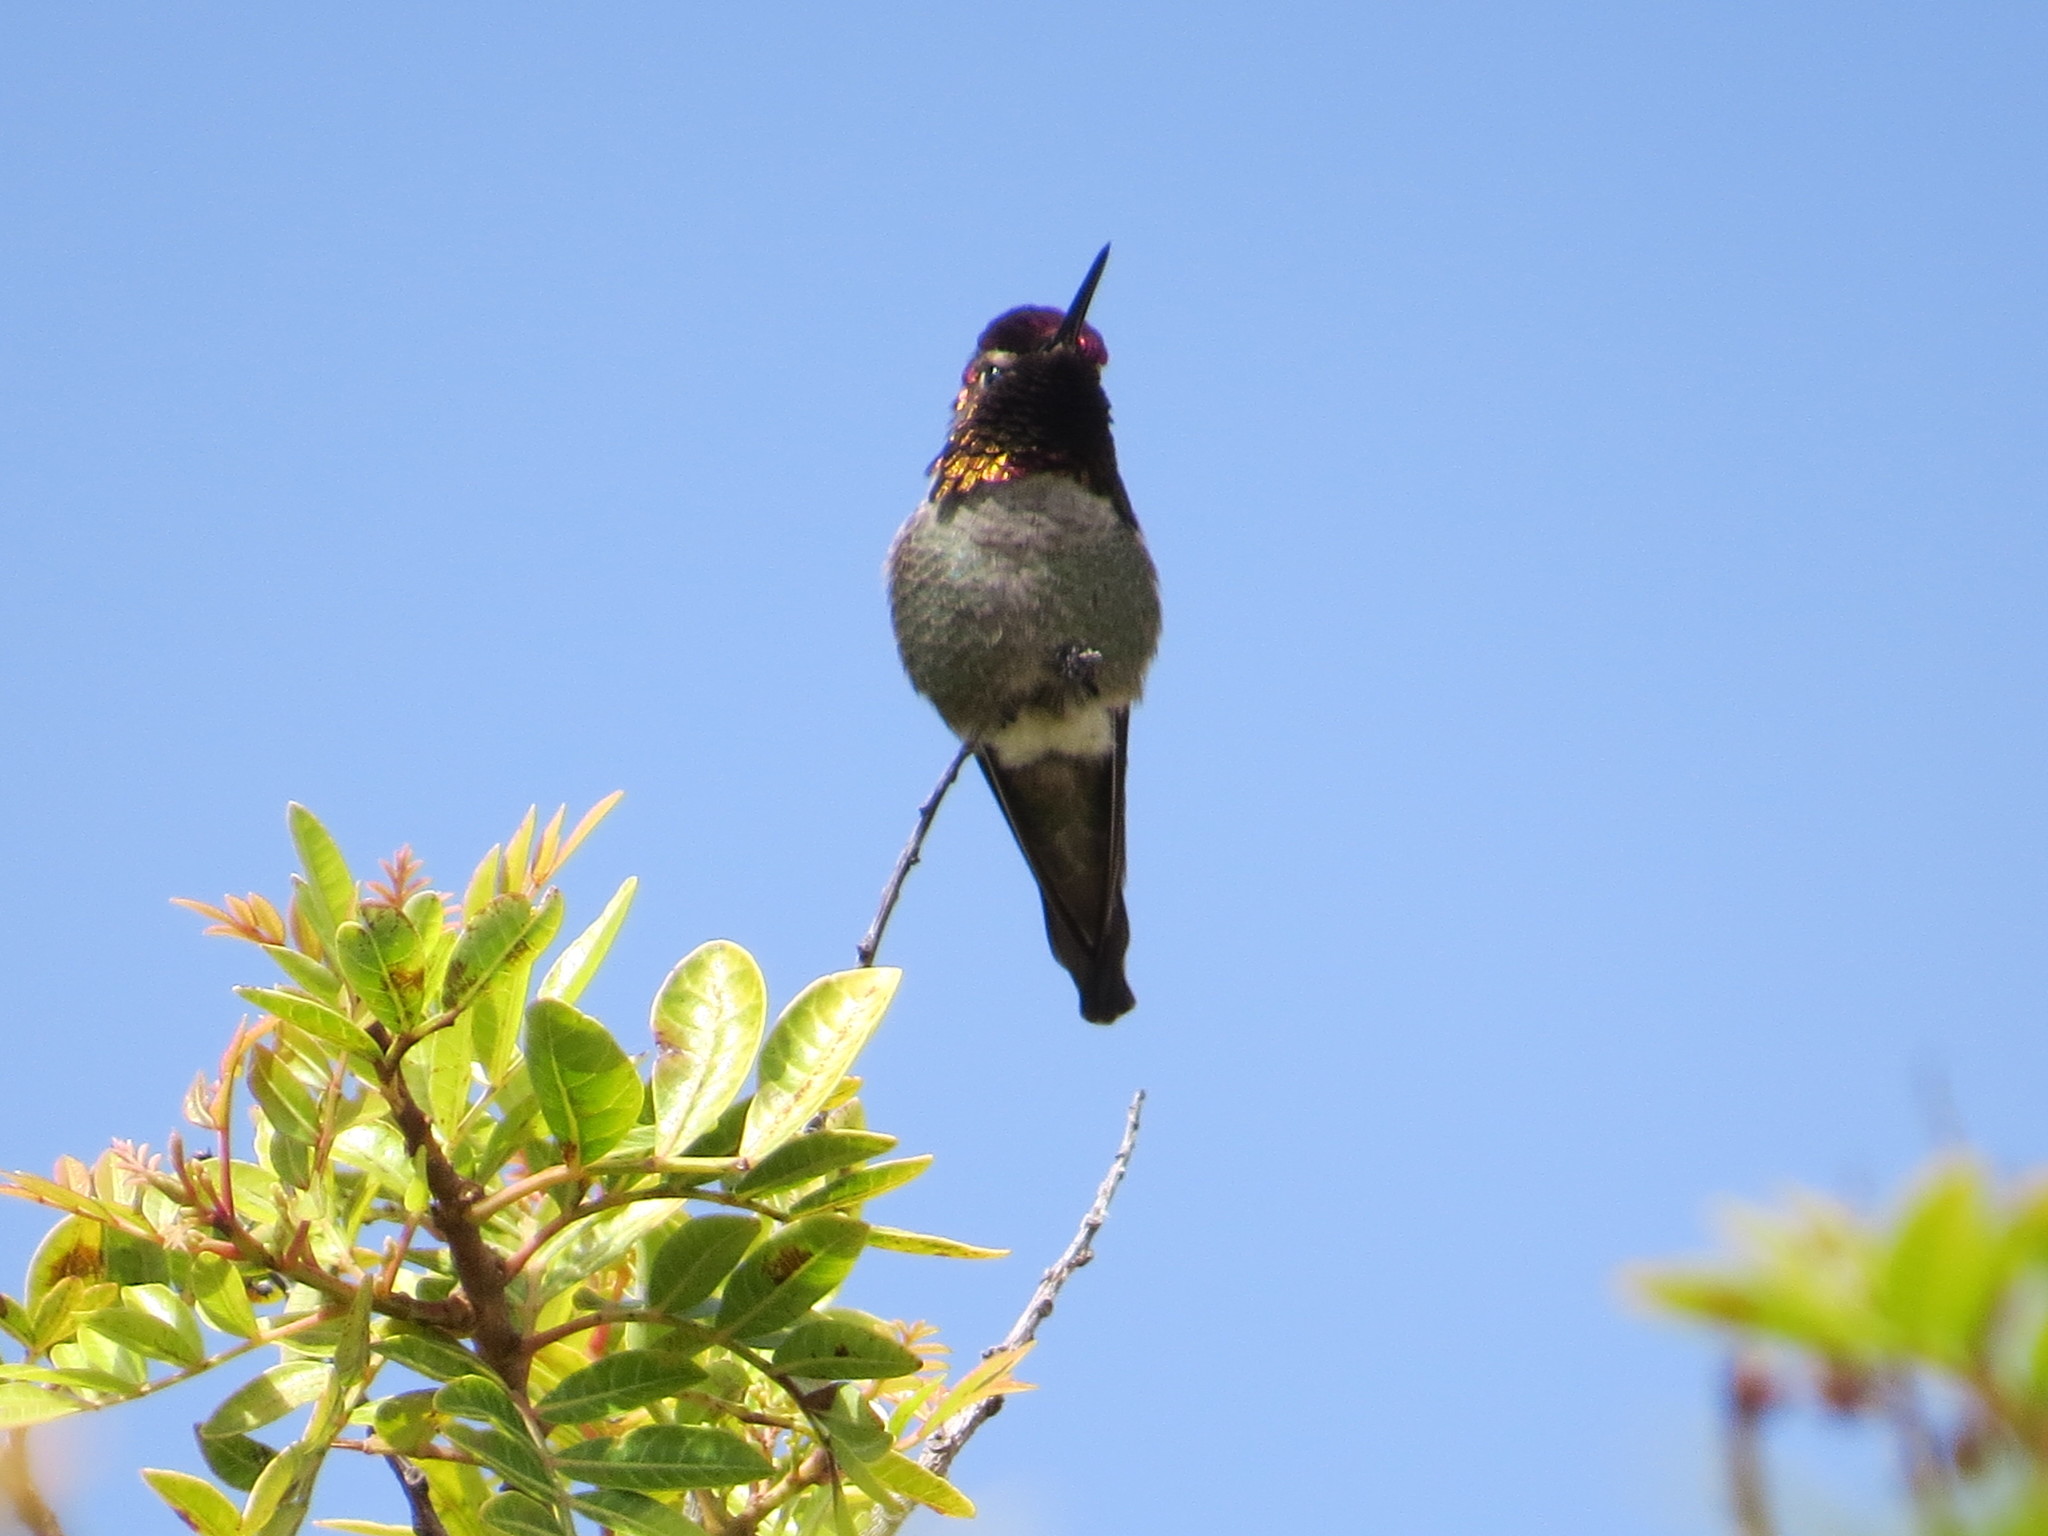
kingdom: Animalia
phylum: Chordata
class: Aves
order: Apodiformes
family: Trochilidae
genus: Calypte
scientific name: Calypte anna
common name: Anna's hummingbird
